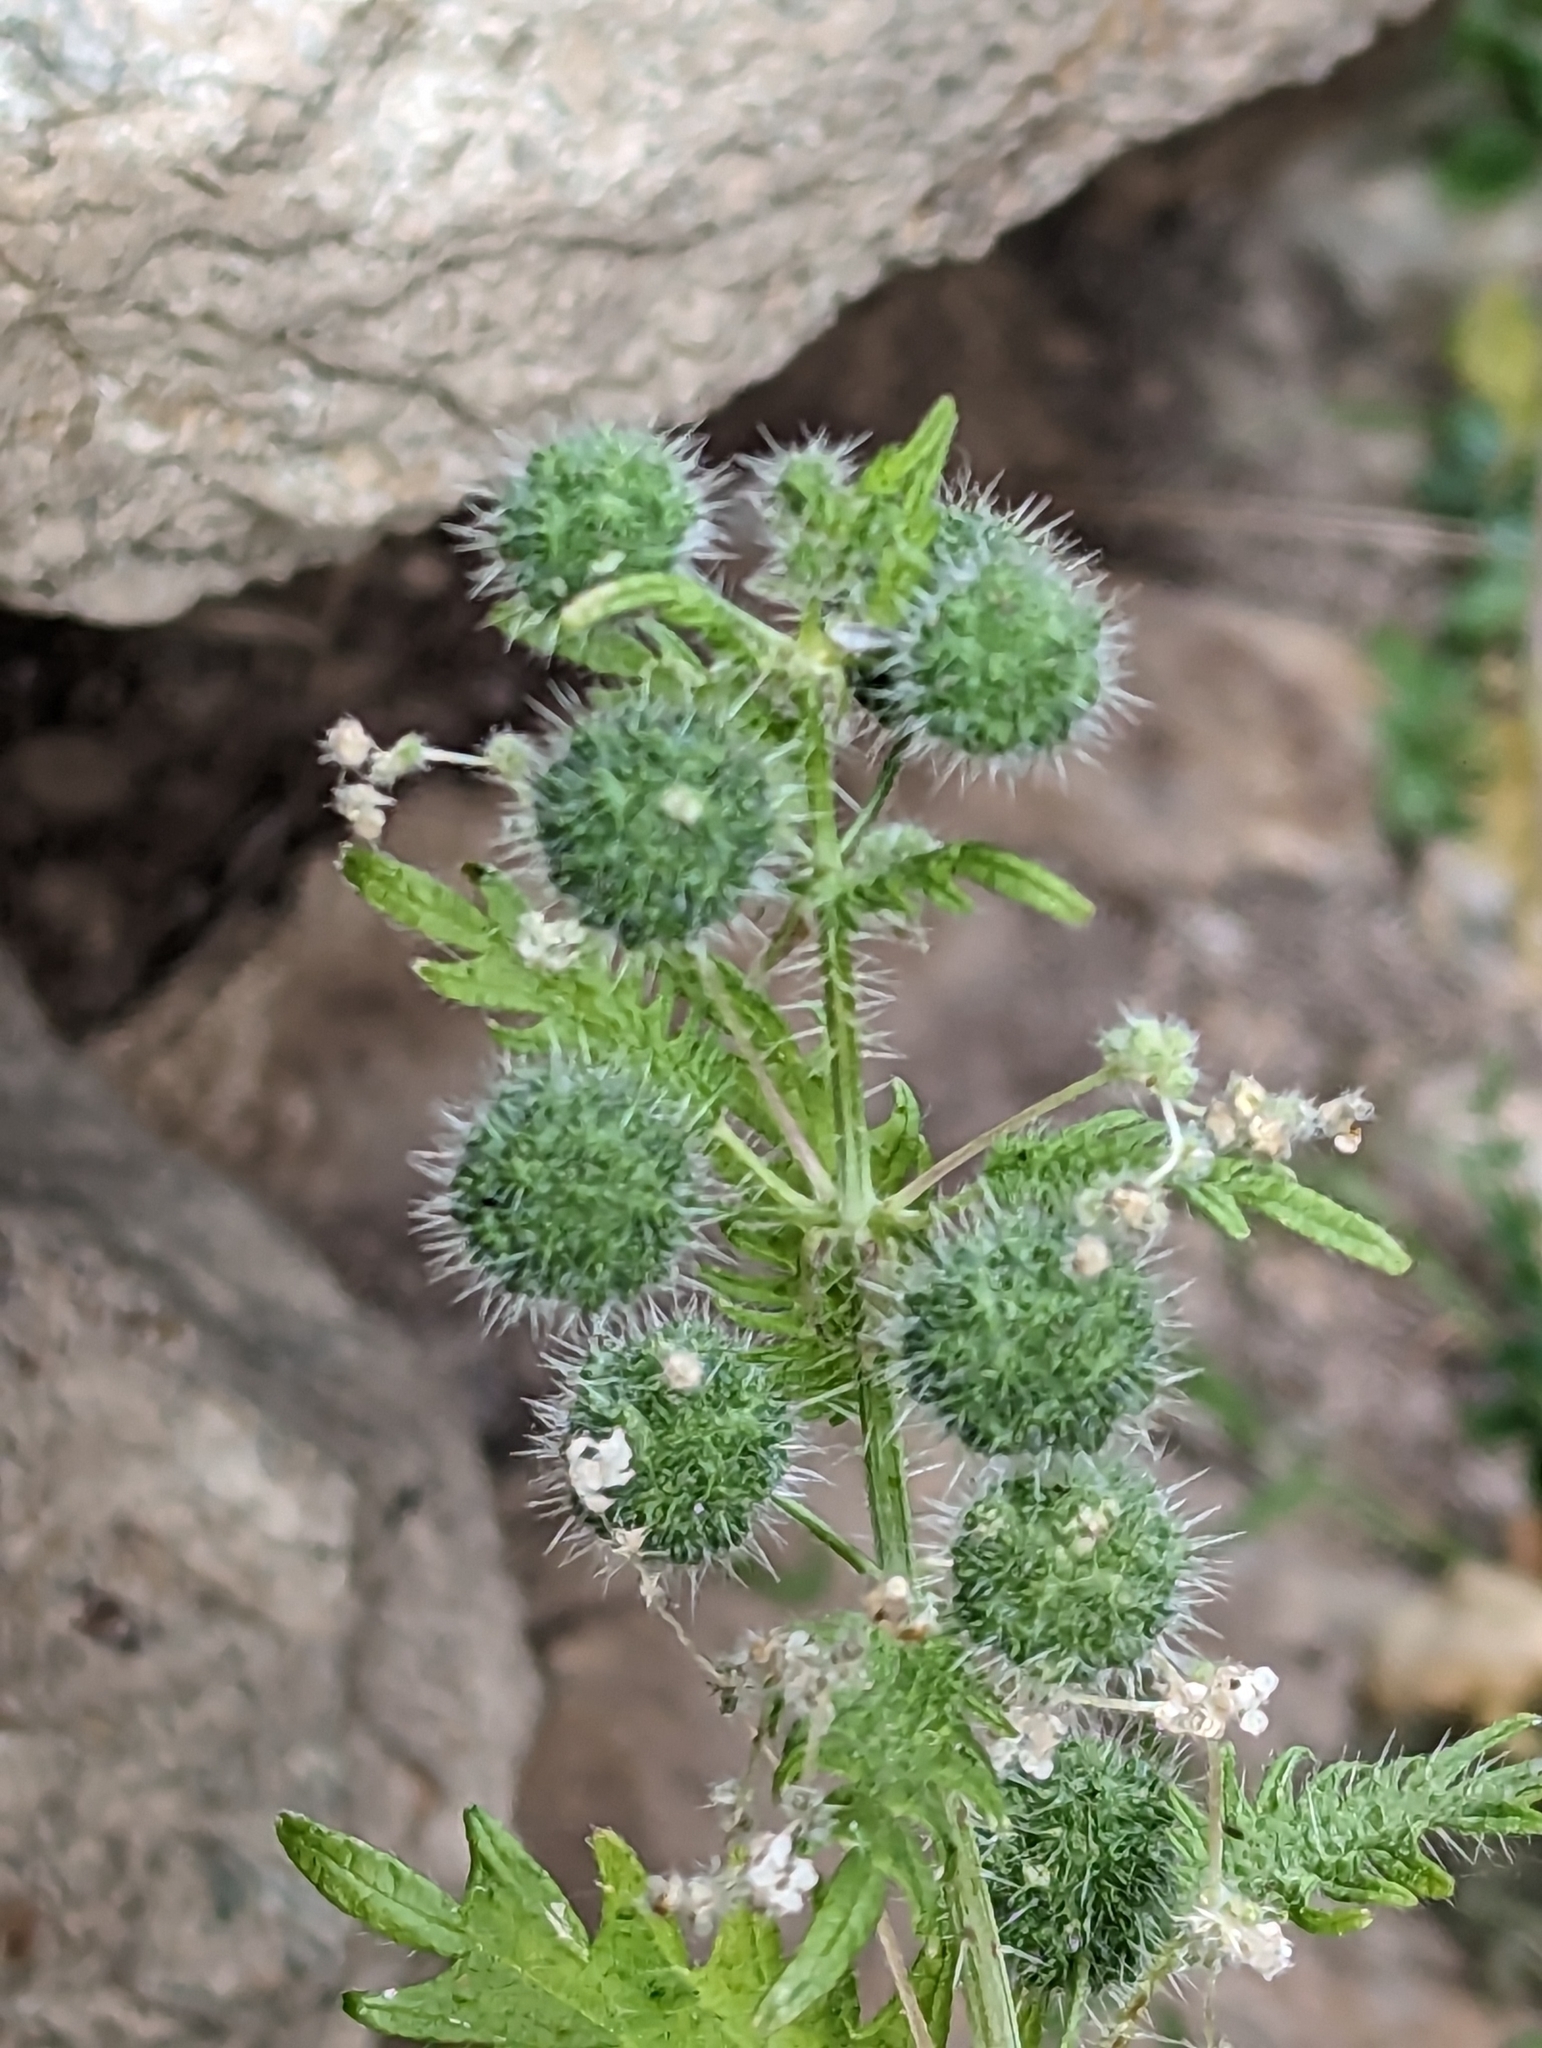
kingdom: Plantae
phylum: Tracheophyta
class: Magnoliopsida
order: Rosales
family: Urticaceae
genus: Urtica
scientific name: Urtica pilulifera
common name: Roman nettle
